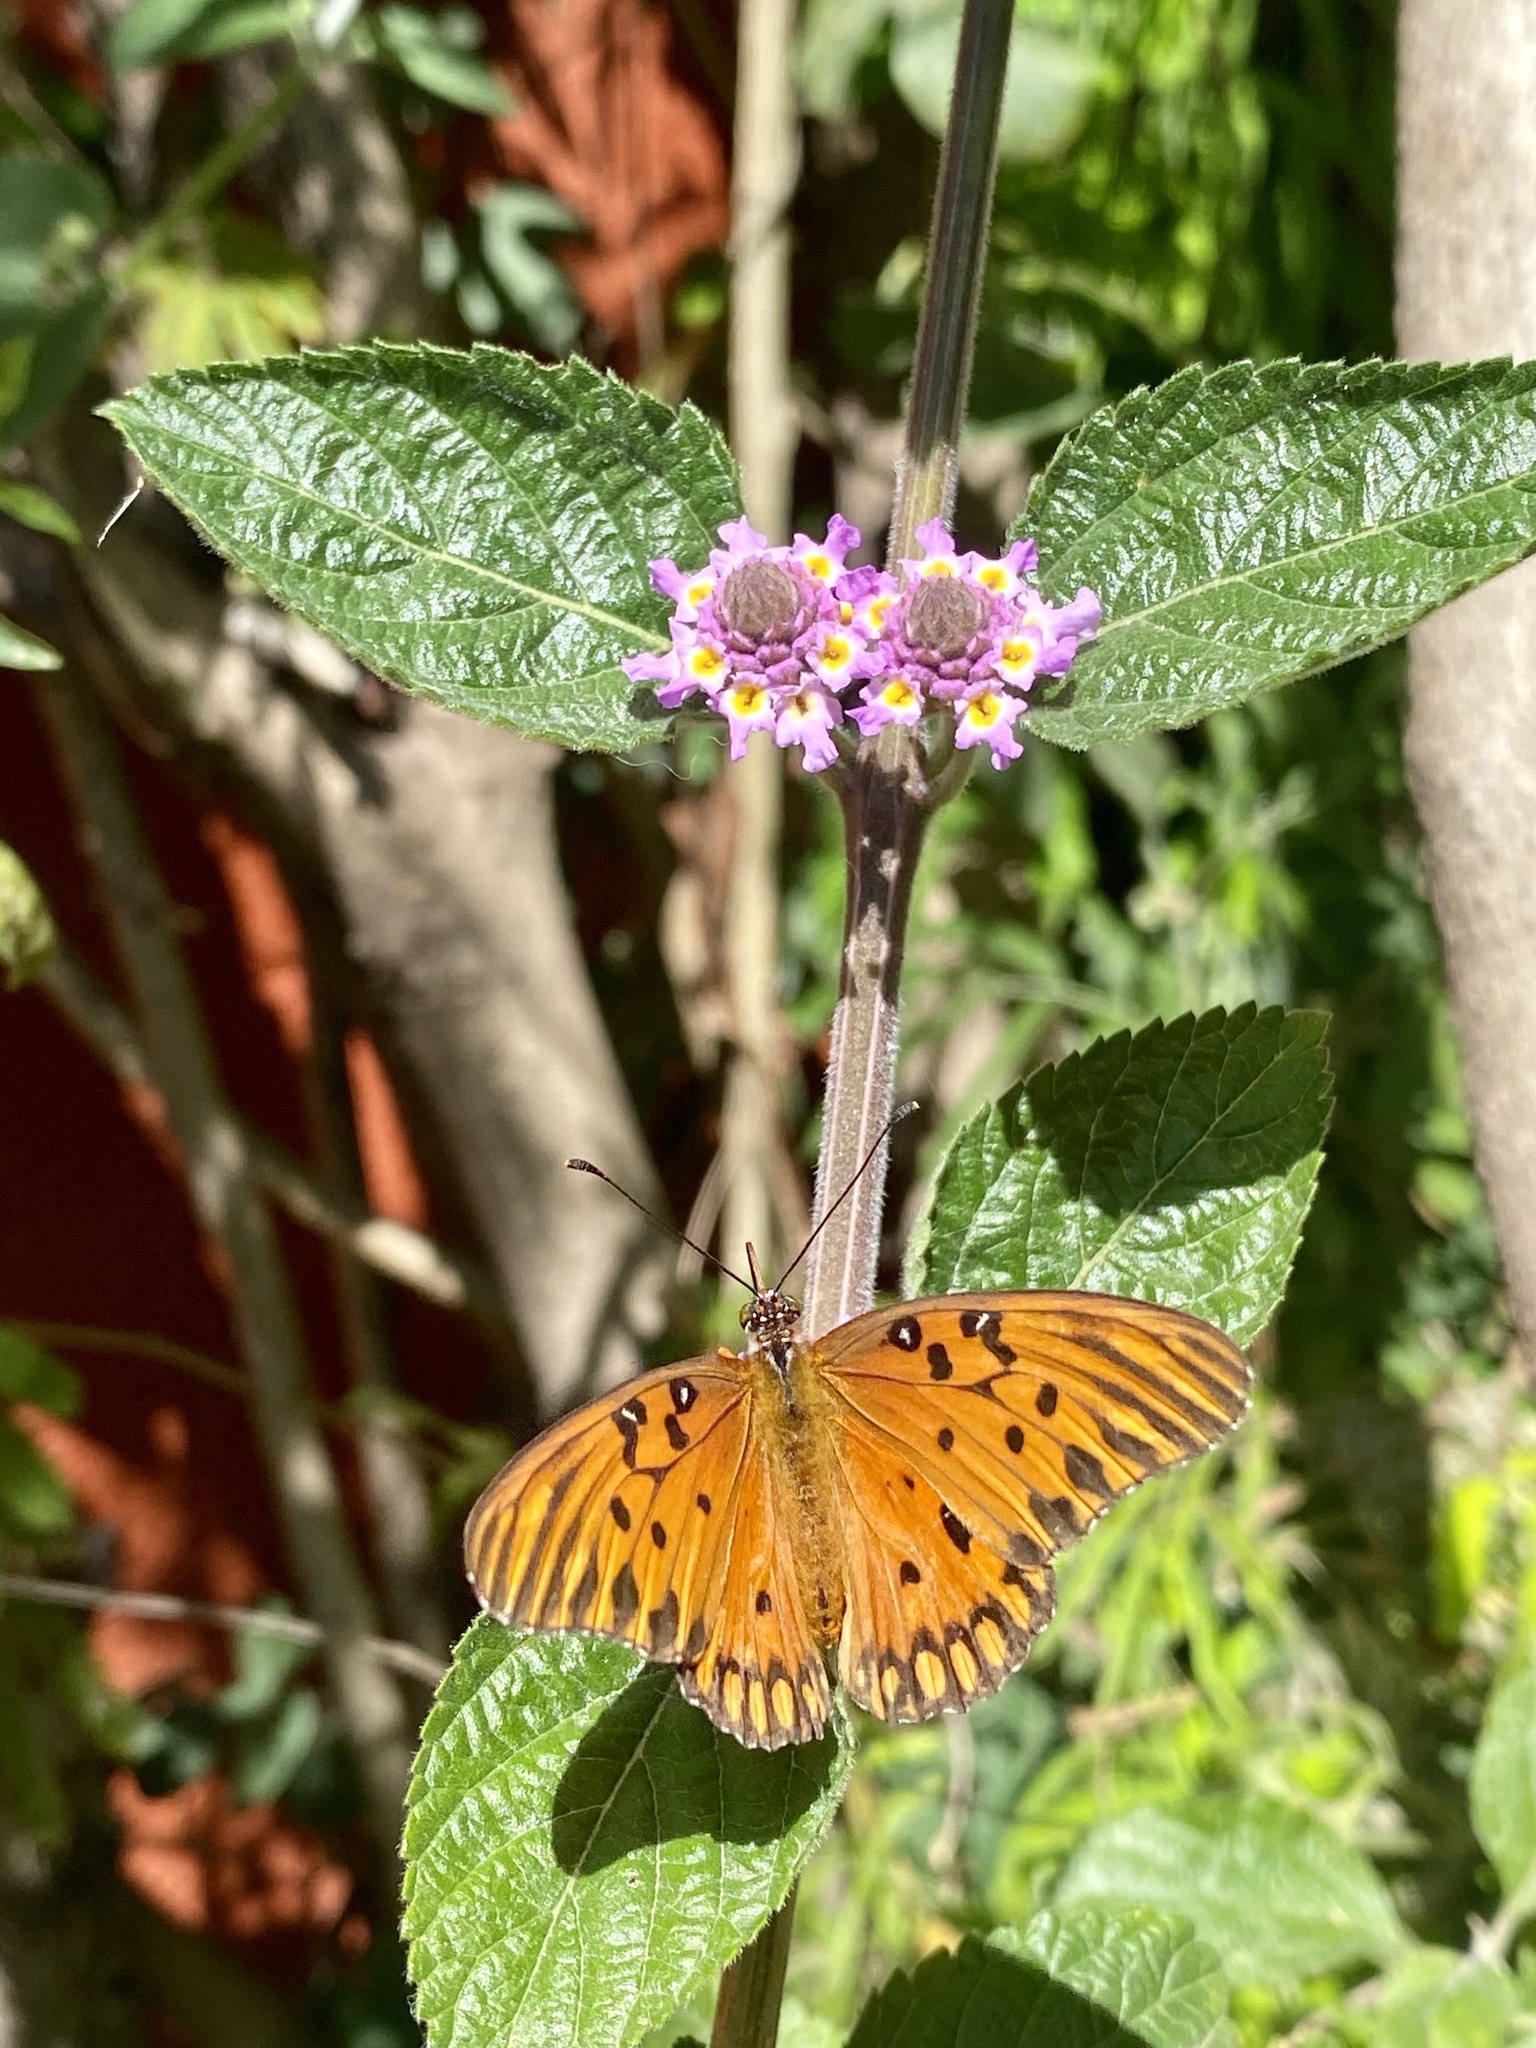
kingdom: Animalia
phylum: Arthropoda
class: Insecta
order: Lepidoptera
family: Nymphalidae
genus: Dione
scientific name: Dione vanillae
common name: Gulf fritillary
